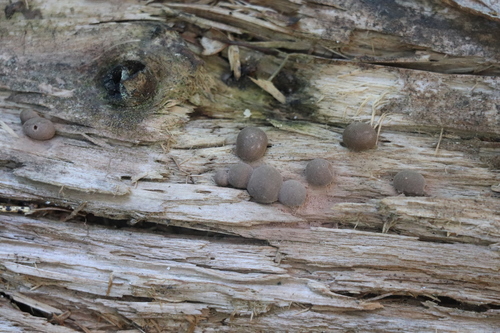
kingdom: Protozoa
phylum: Mycetozoa
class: Myxomycetes
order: Cribrariales
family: Tubiferaceae
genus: Lycogala
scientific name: Lycogala epidendrum
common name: Wolf's milk
